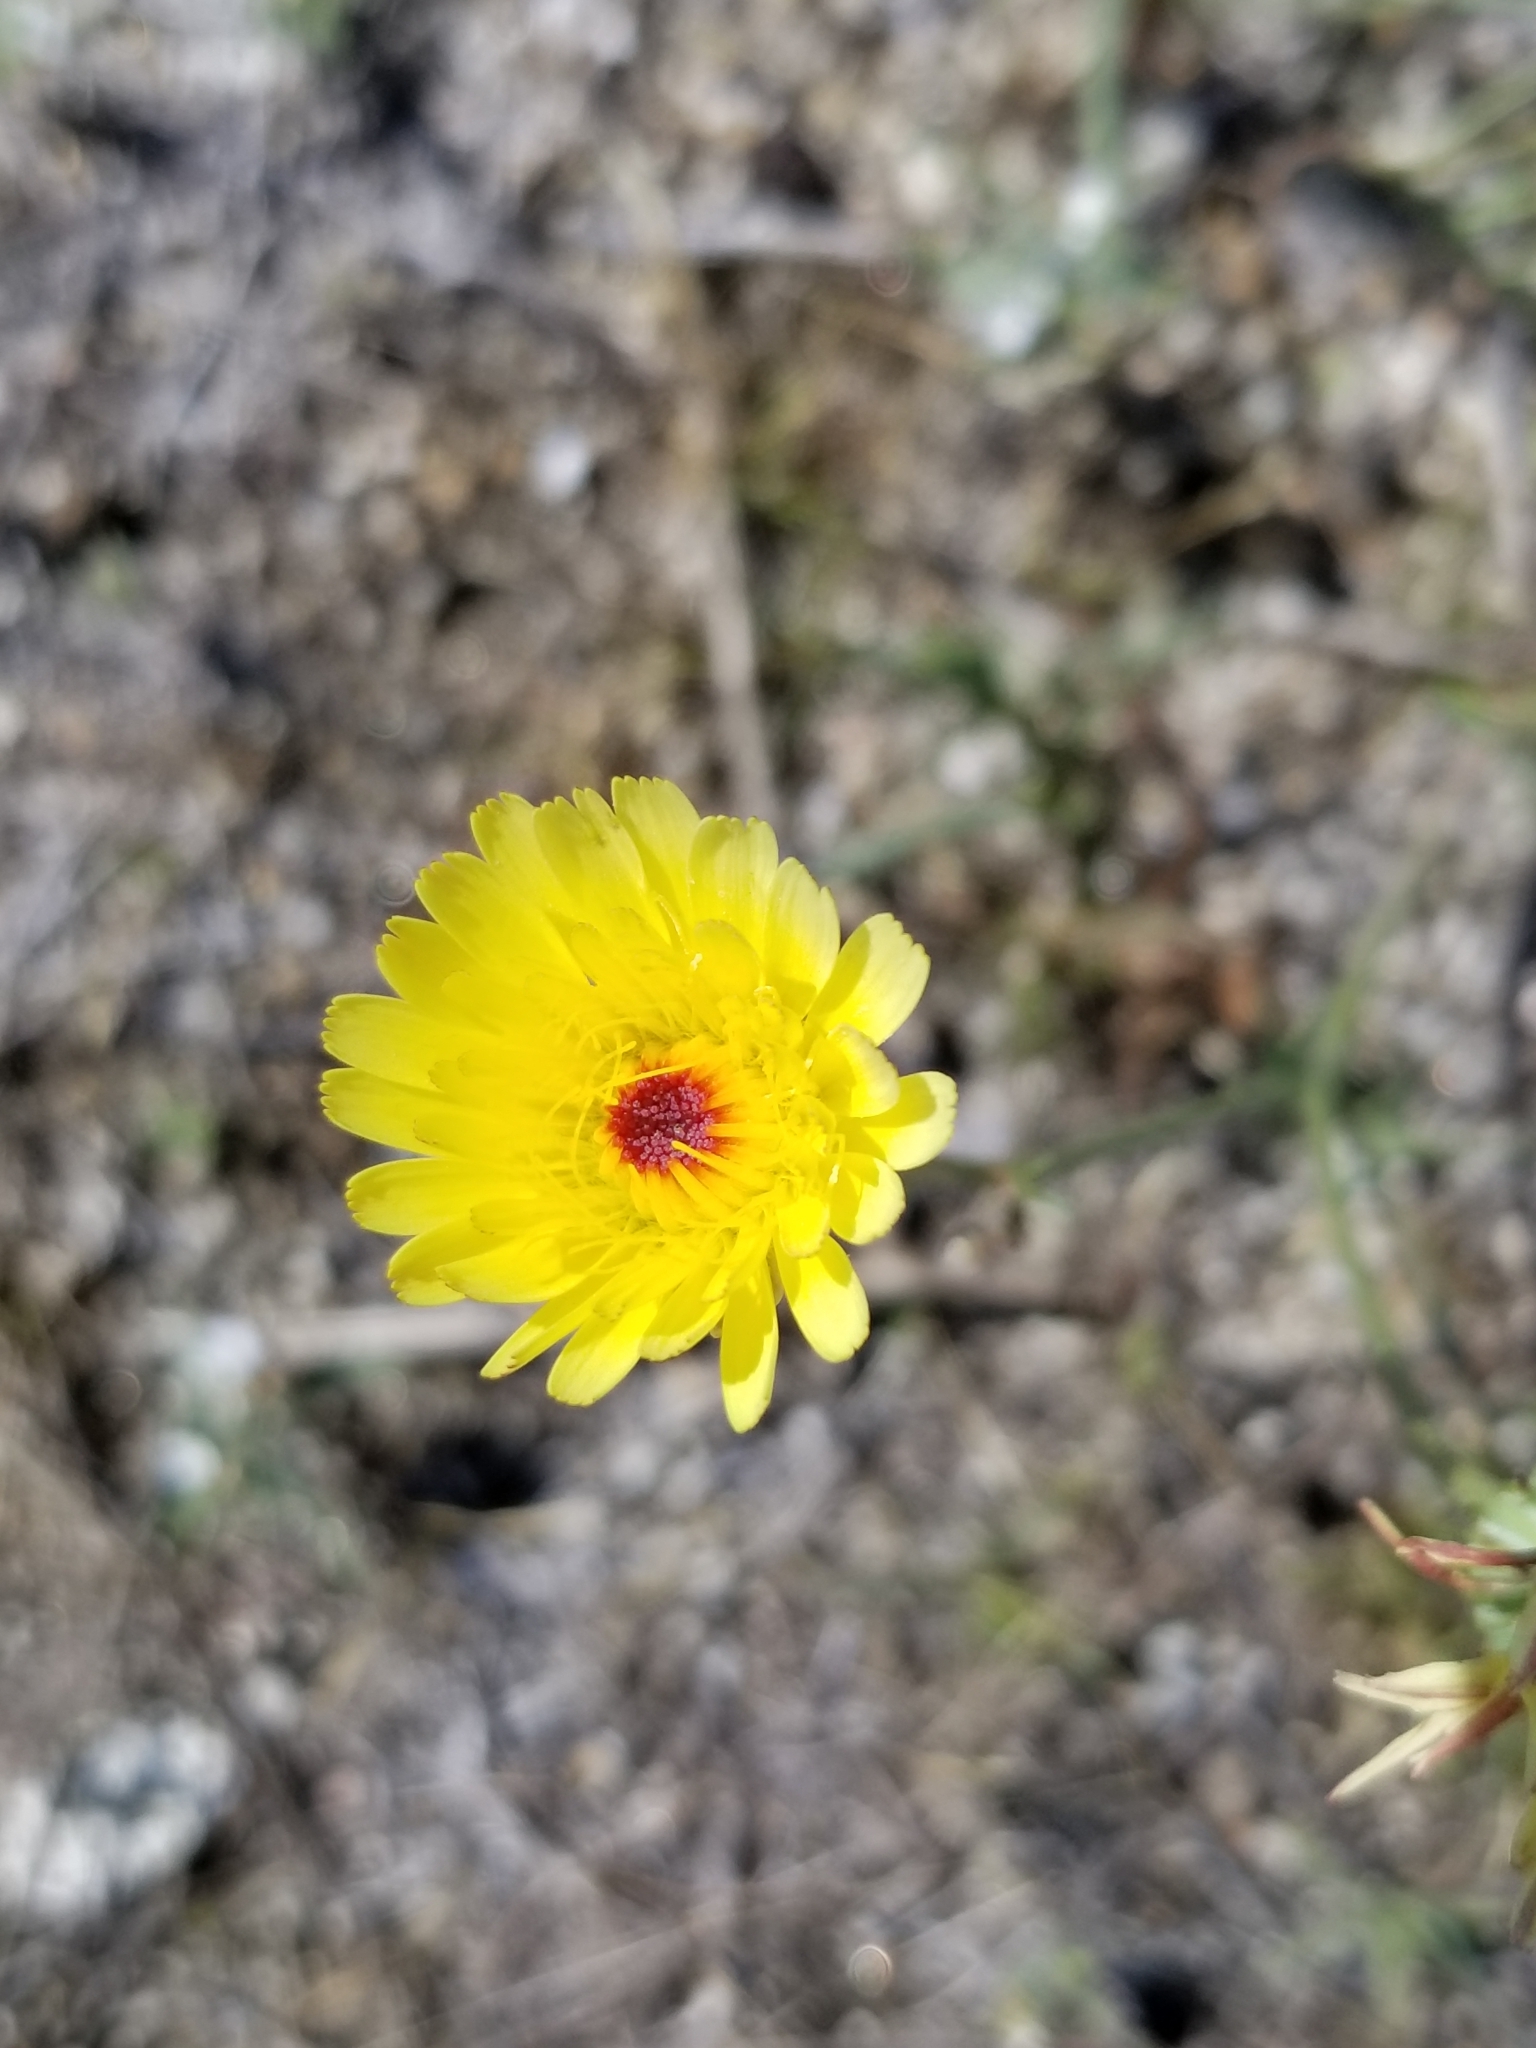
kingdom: Plantae
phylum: Tracheophyta
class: Magnoliopsida
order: Asterales
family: Asteraceae
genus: Malacothrix
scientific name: Malacothrix glabrata
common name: Smooth desert-dandelion
